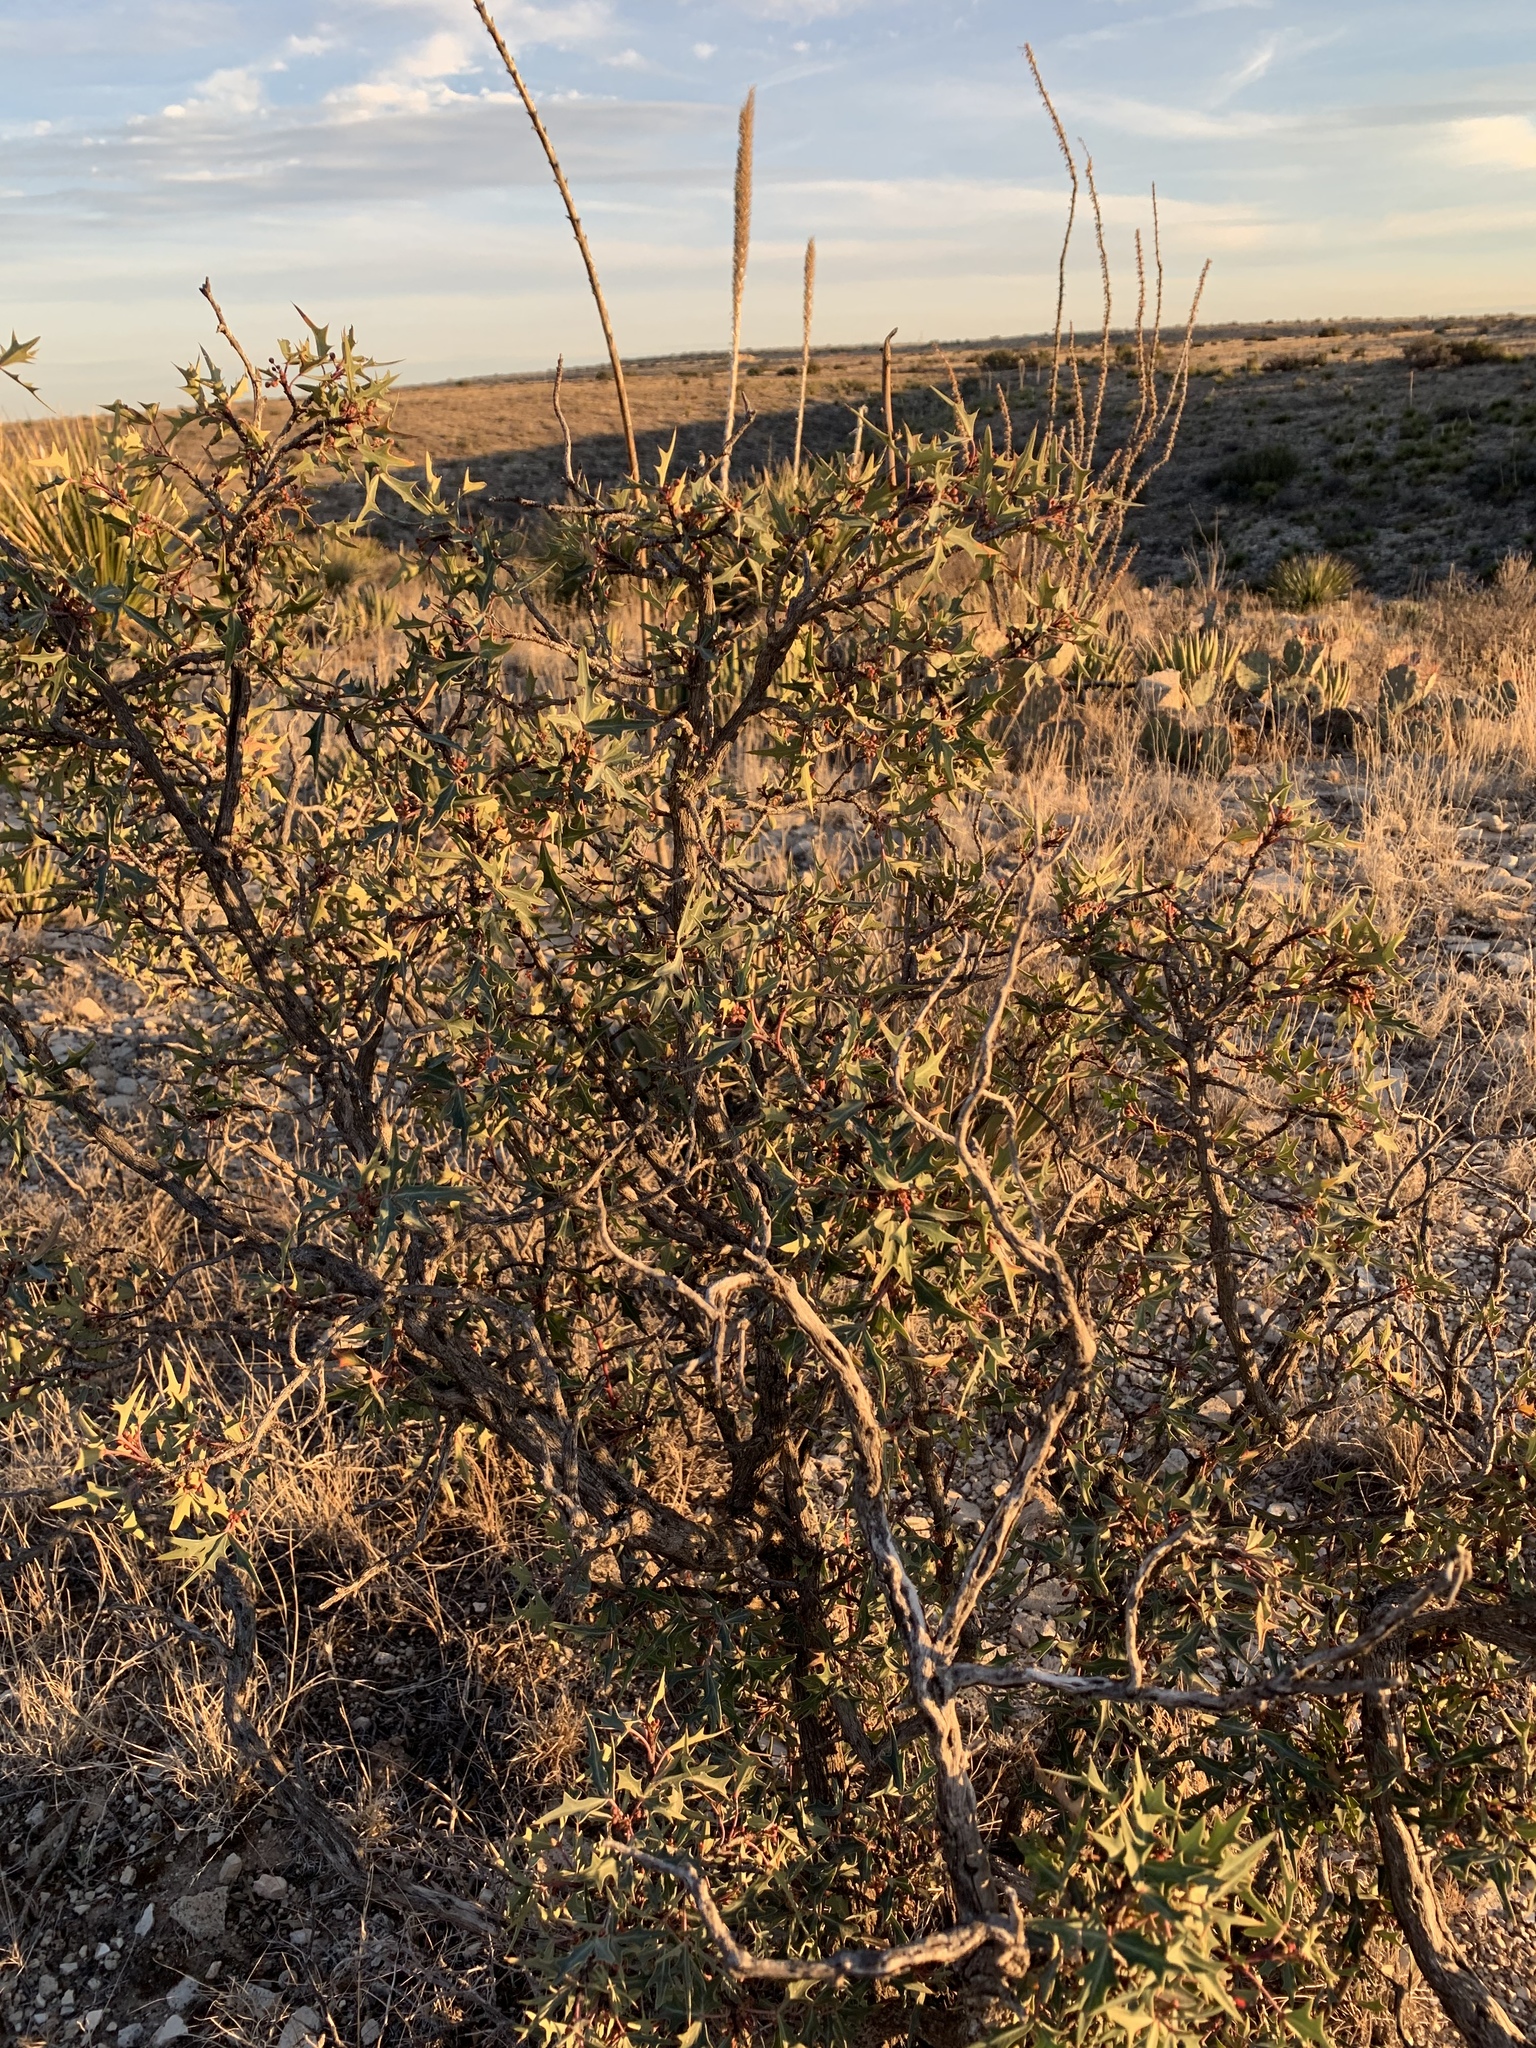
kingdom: Plantae
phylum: Tracheophyta
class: Magnoliopsida
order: Ranunculales
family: Berberidaceae
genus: Alloberberis
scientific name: Alloberberis trifoliolata
